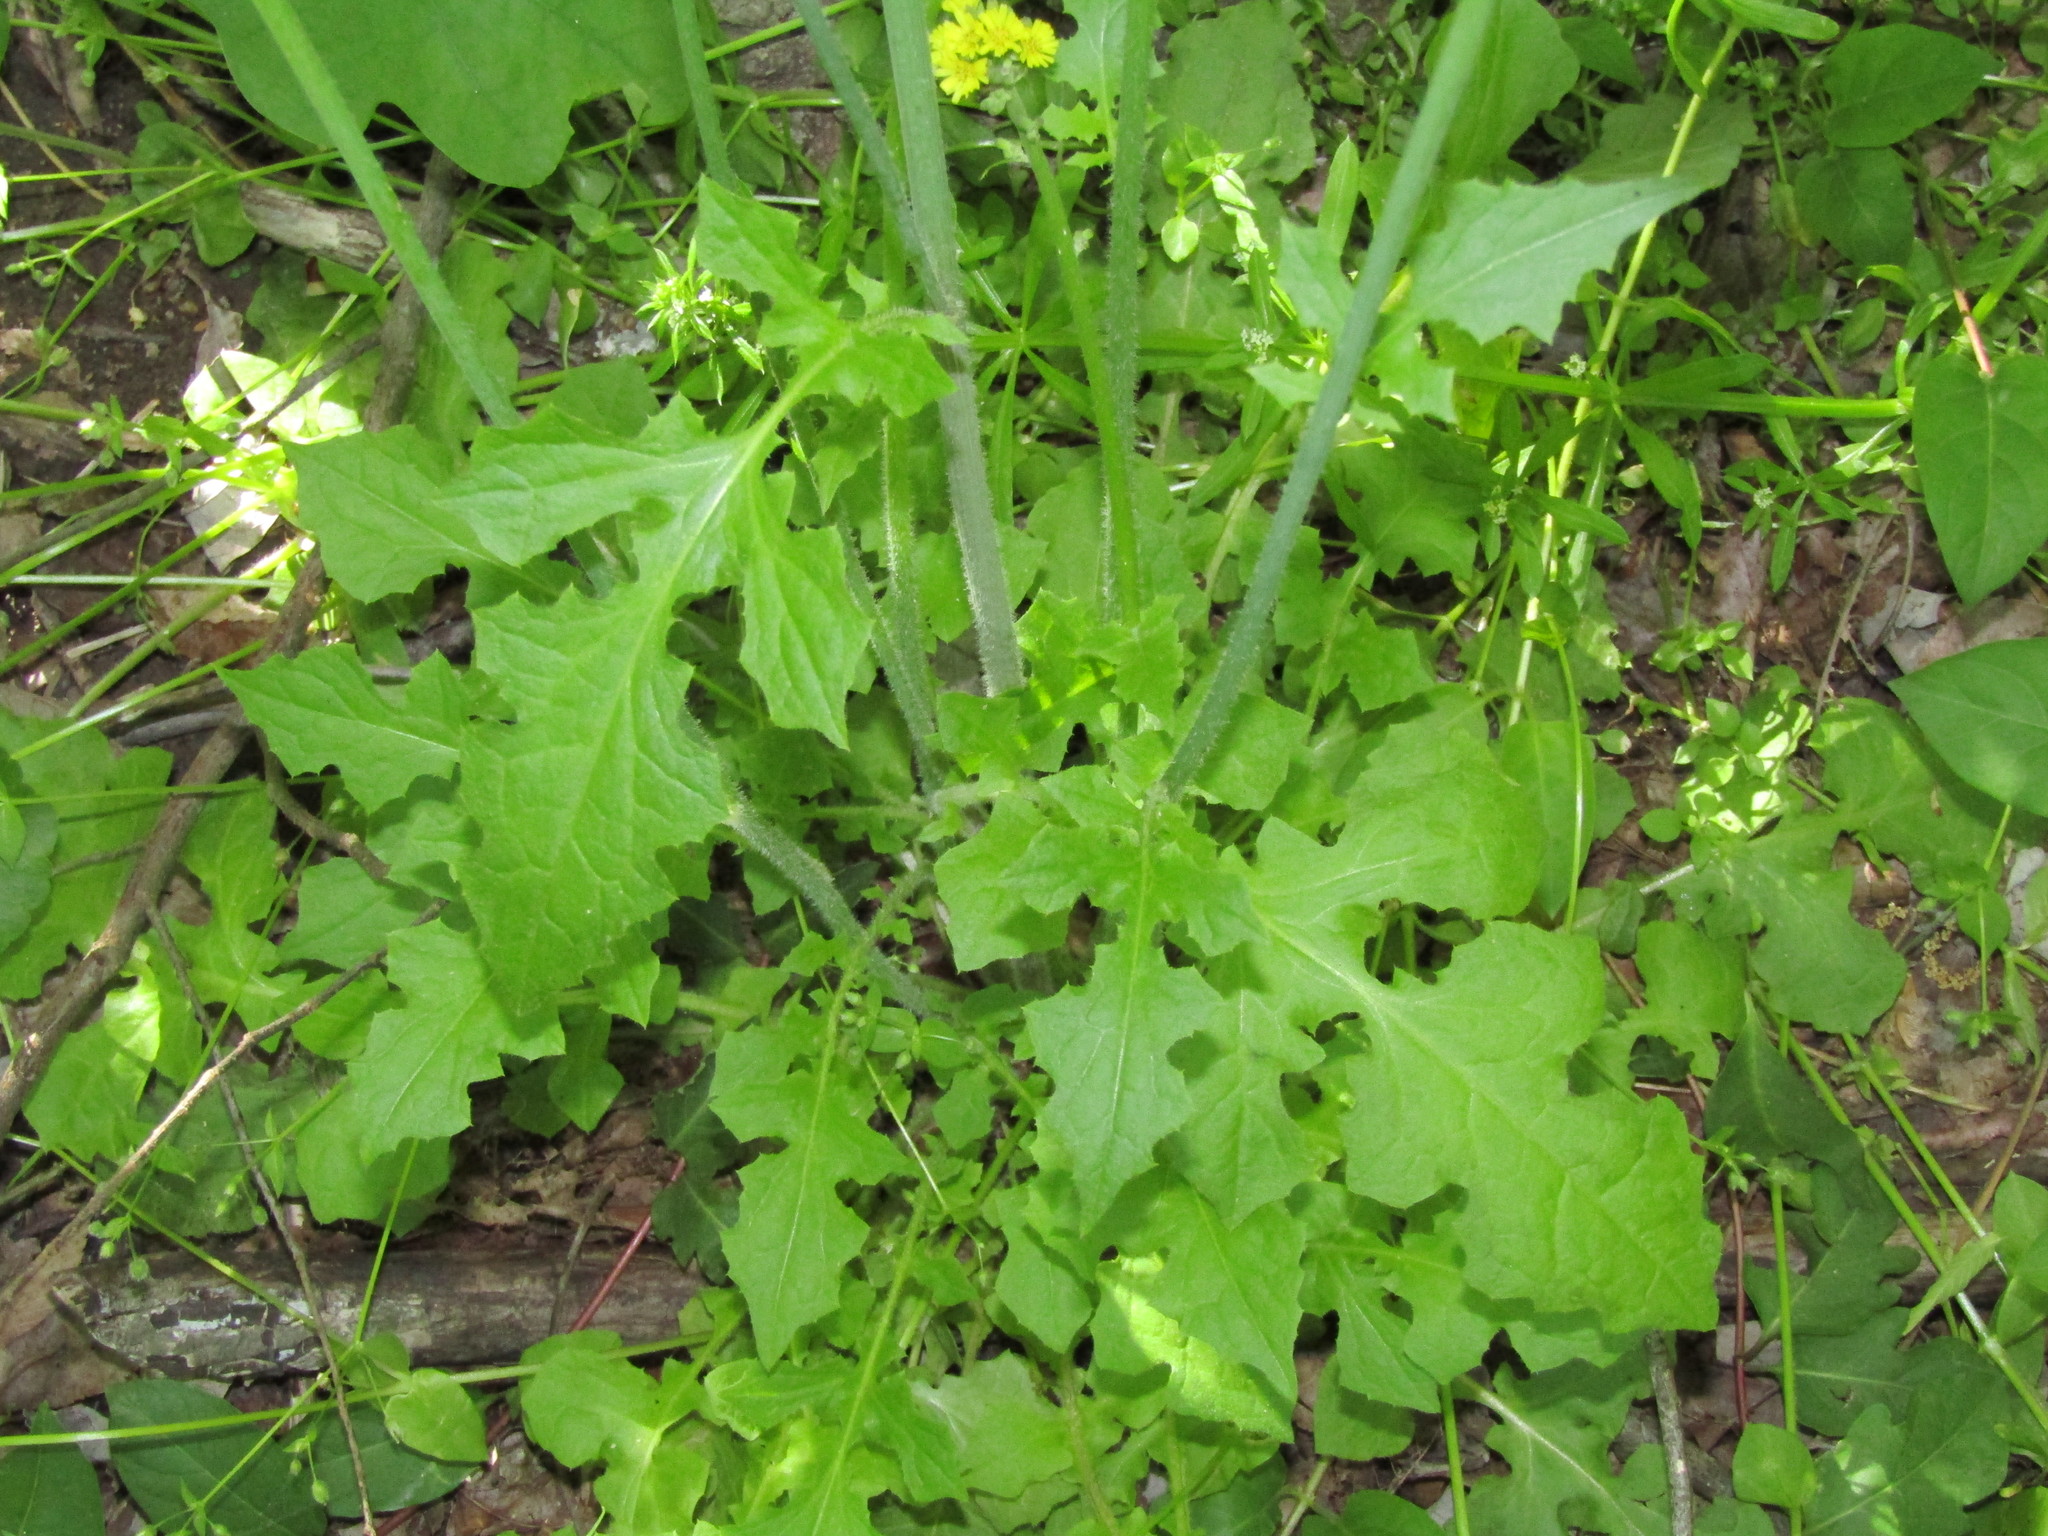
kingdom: Plantae
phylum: Tracheophyta
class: Magnoliopsida
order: Asterales
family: Asteraceae
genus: Youngia
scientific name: Youngia japonica
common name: Oriental false hawksbeard
